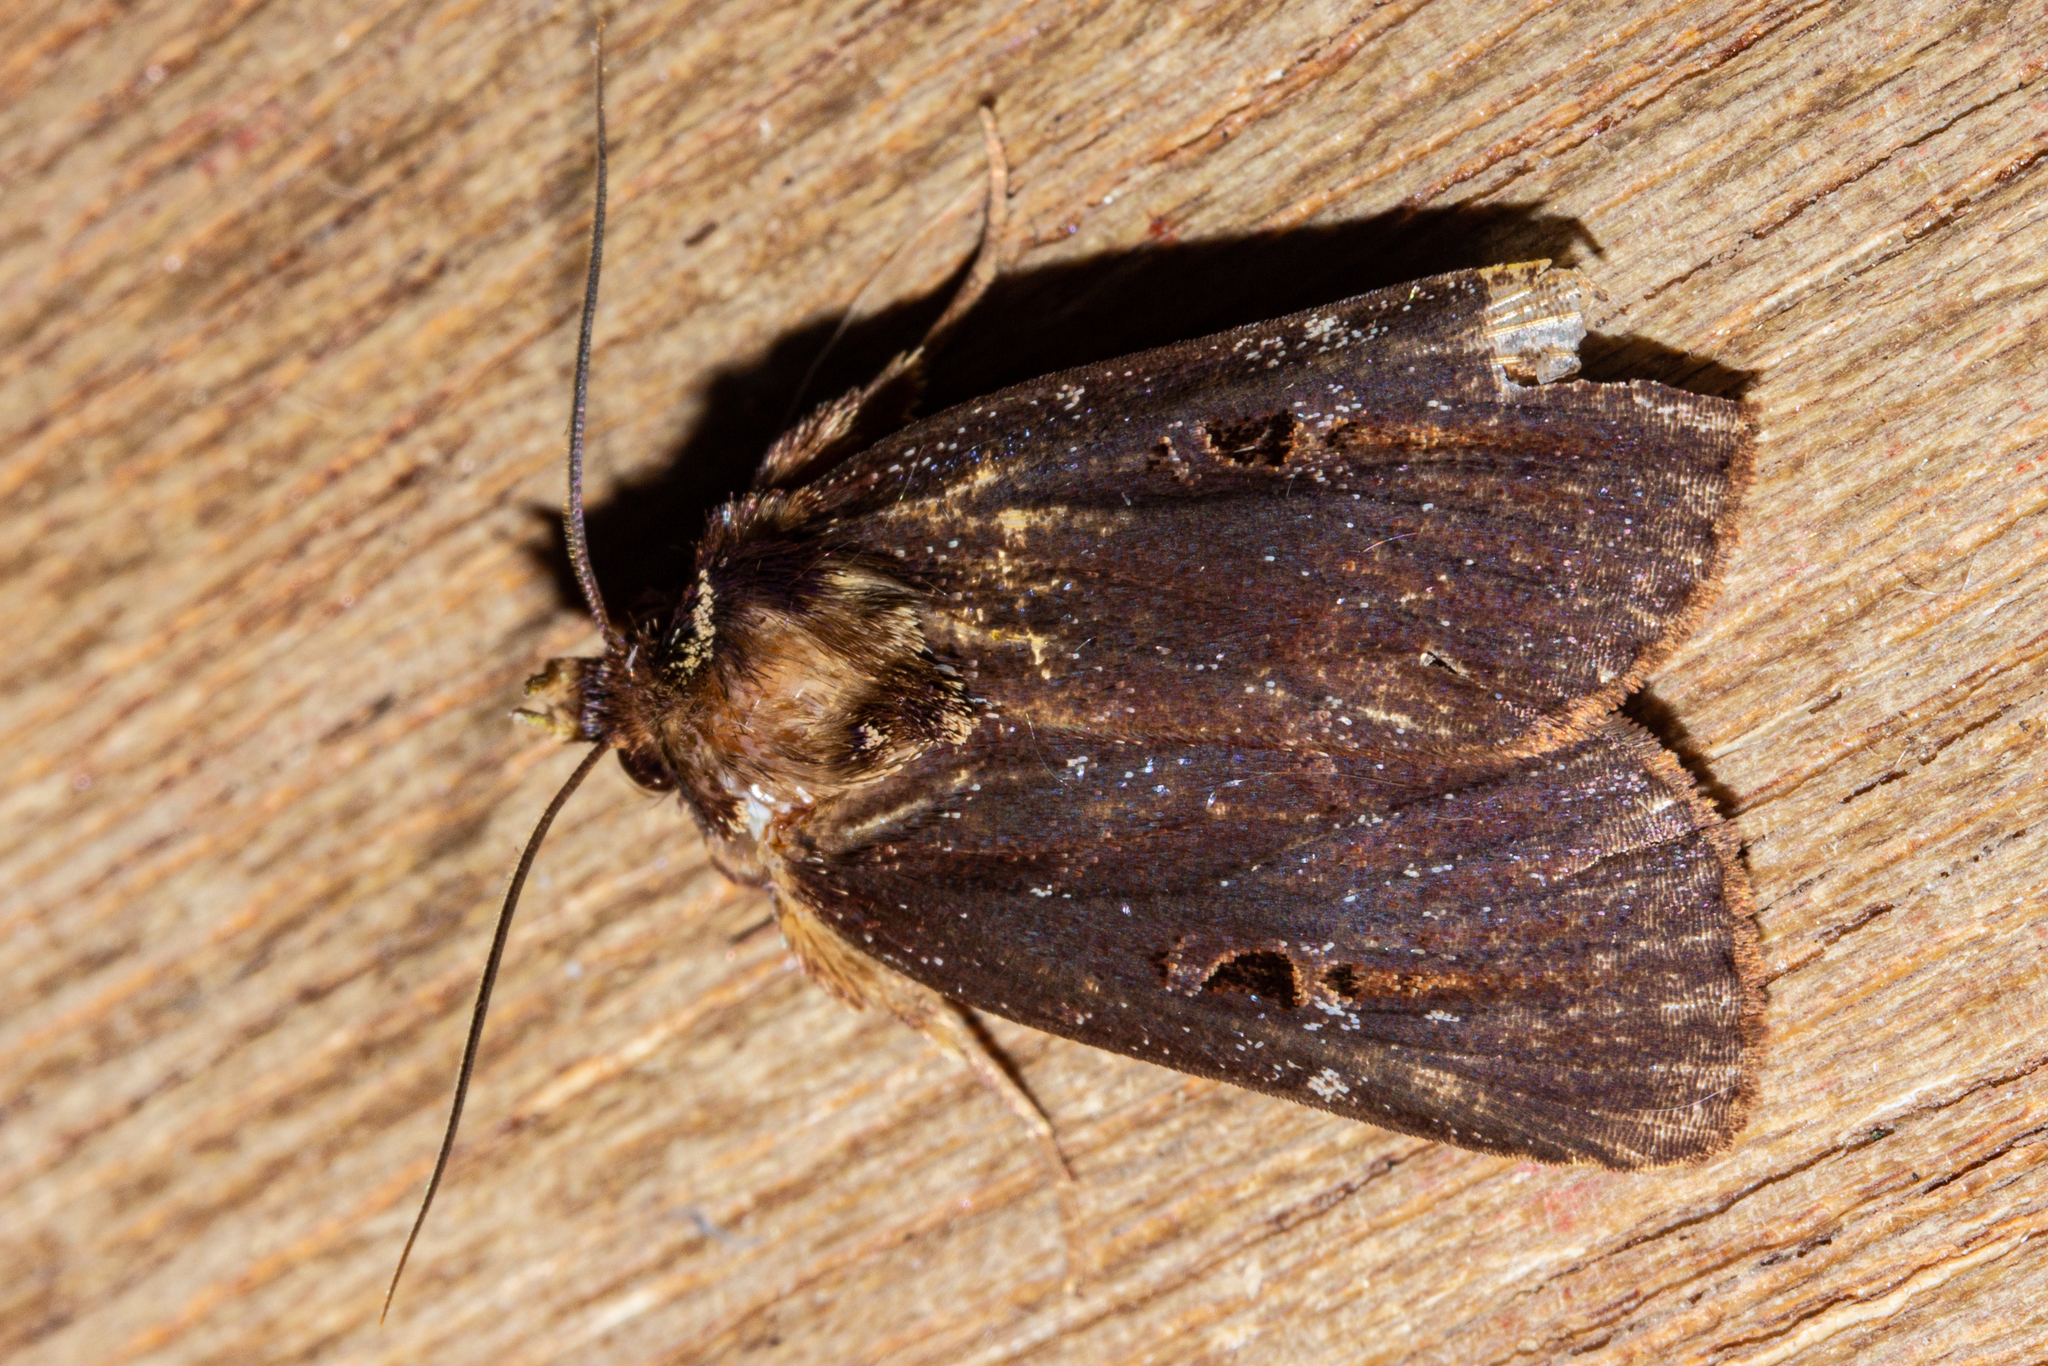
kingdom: Animalia
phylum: Arthropoda
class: Insecta
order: Lepidoptera
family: Noctuidae
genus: Austramathes
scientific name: Austramathes purpurea
